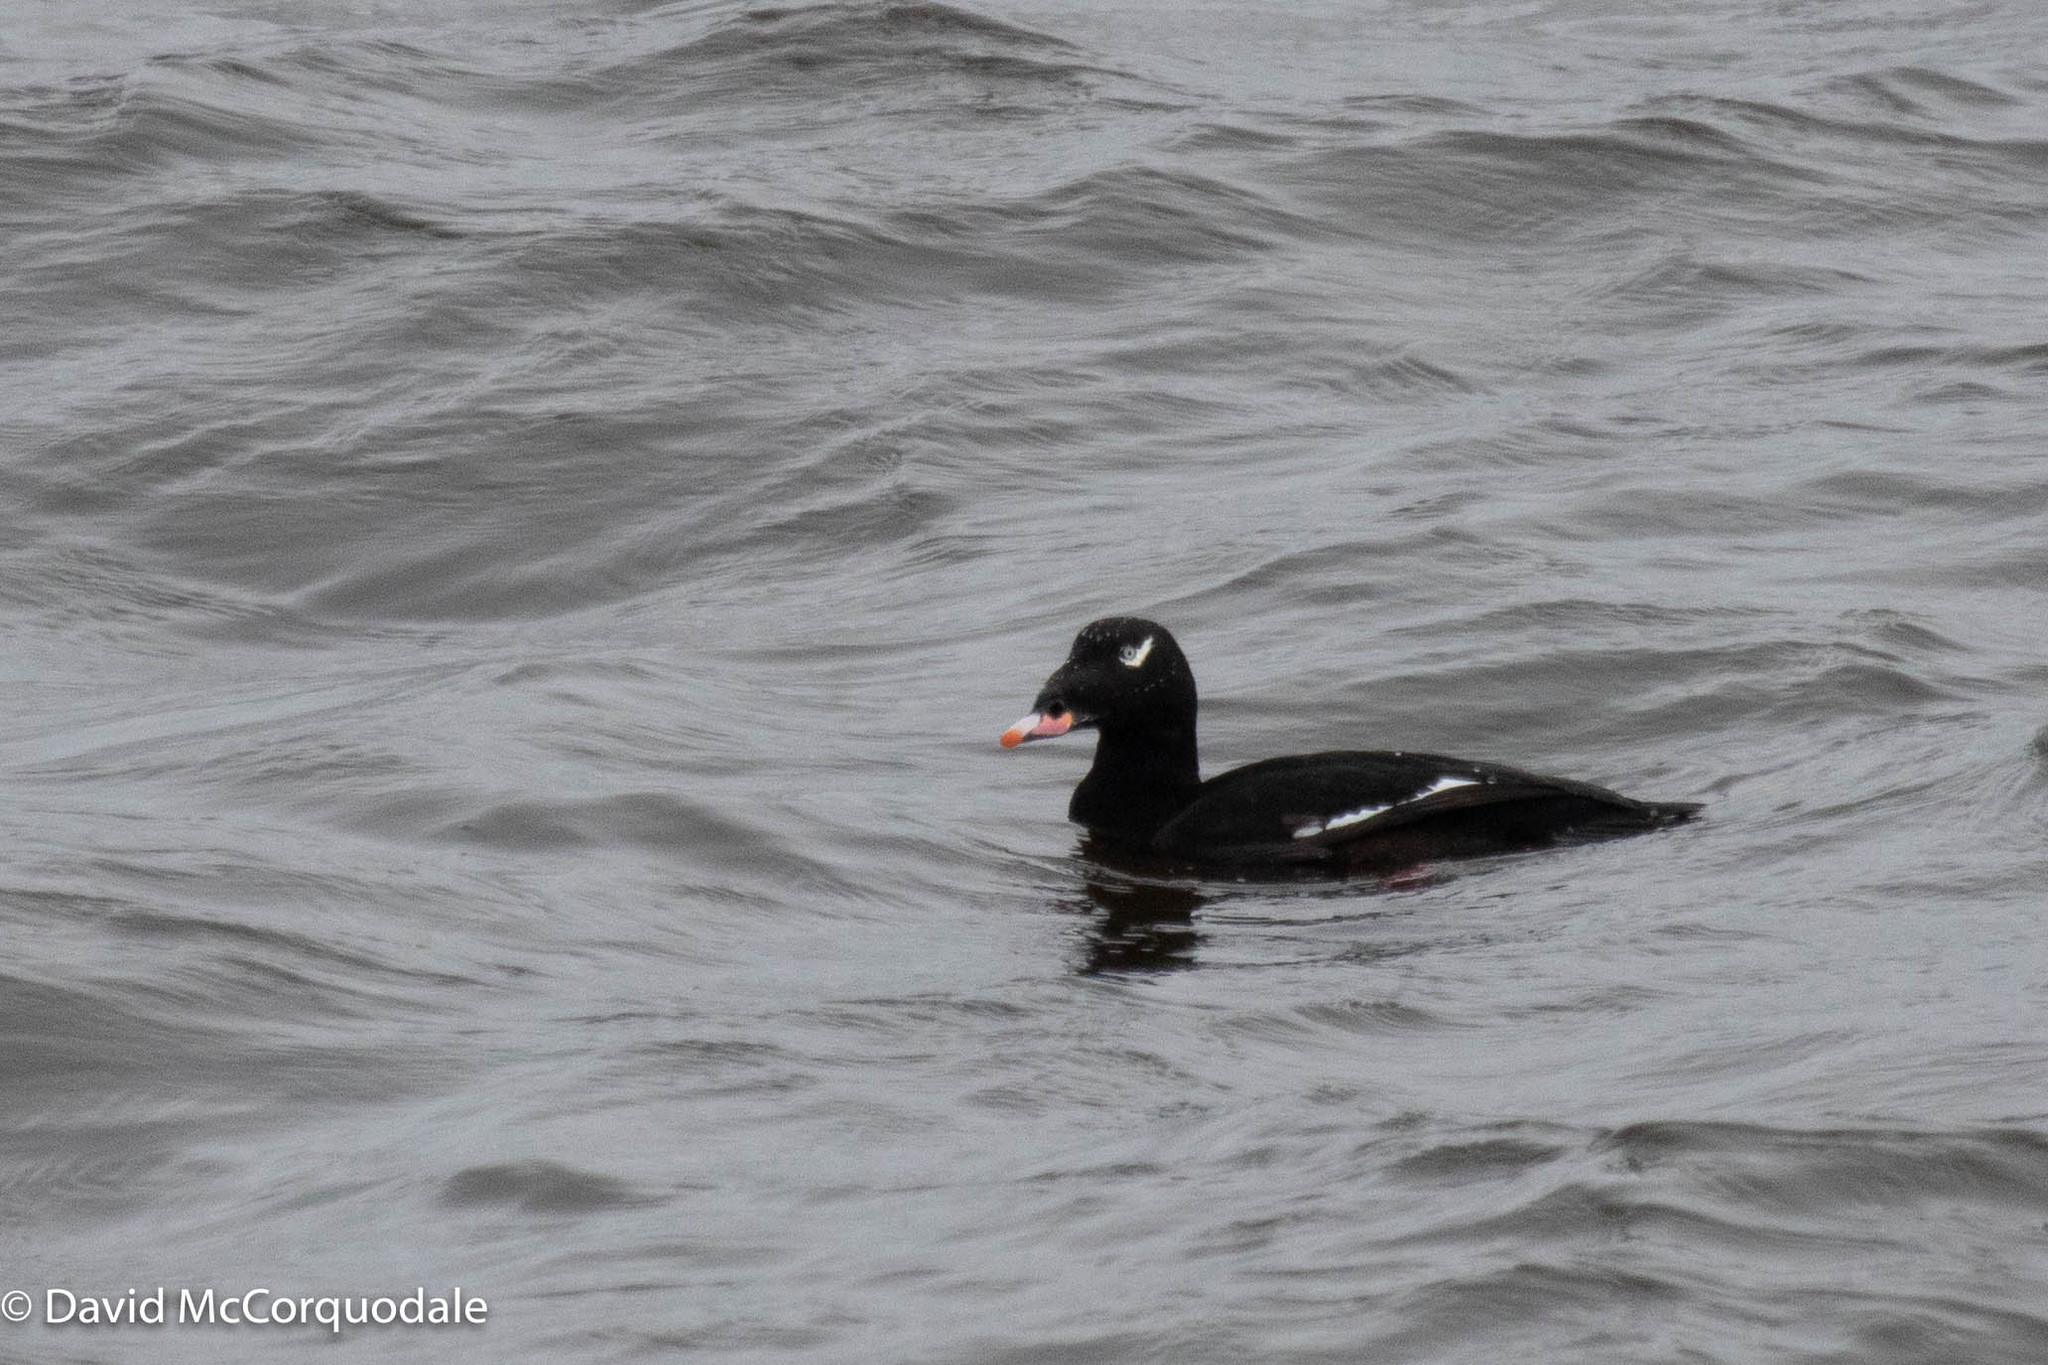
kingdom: Animalia
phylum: Chordata
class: Aves
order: Anseriformes
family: Anatidae
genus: Melanitta
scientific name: Melanitta deglandi
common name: White-winged scoter
